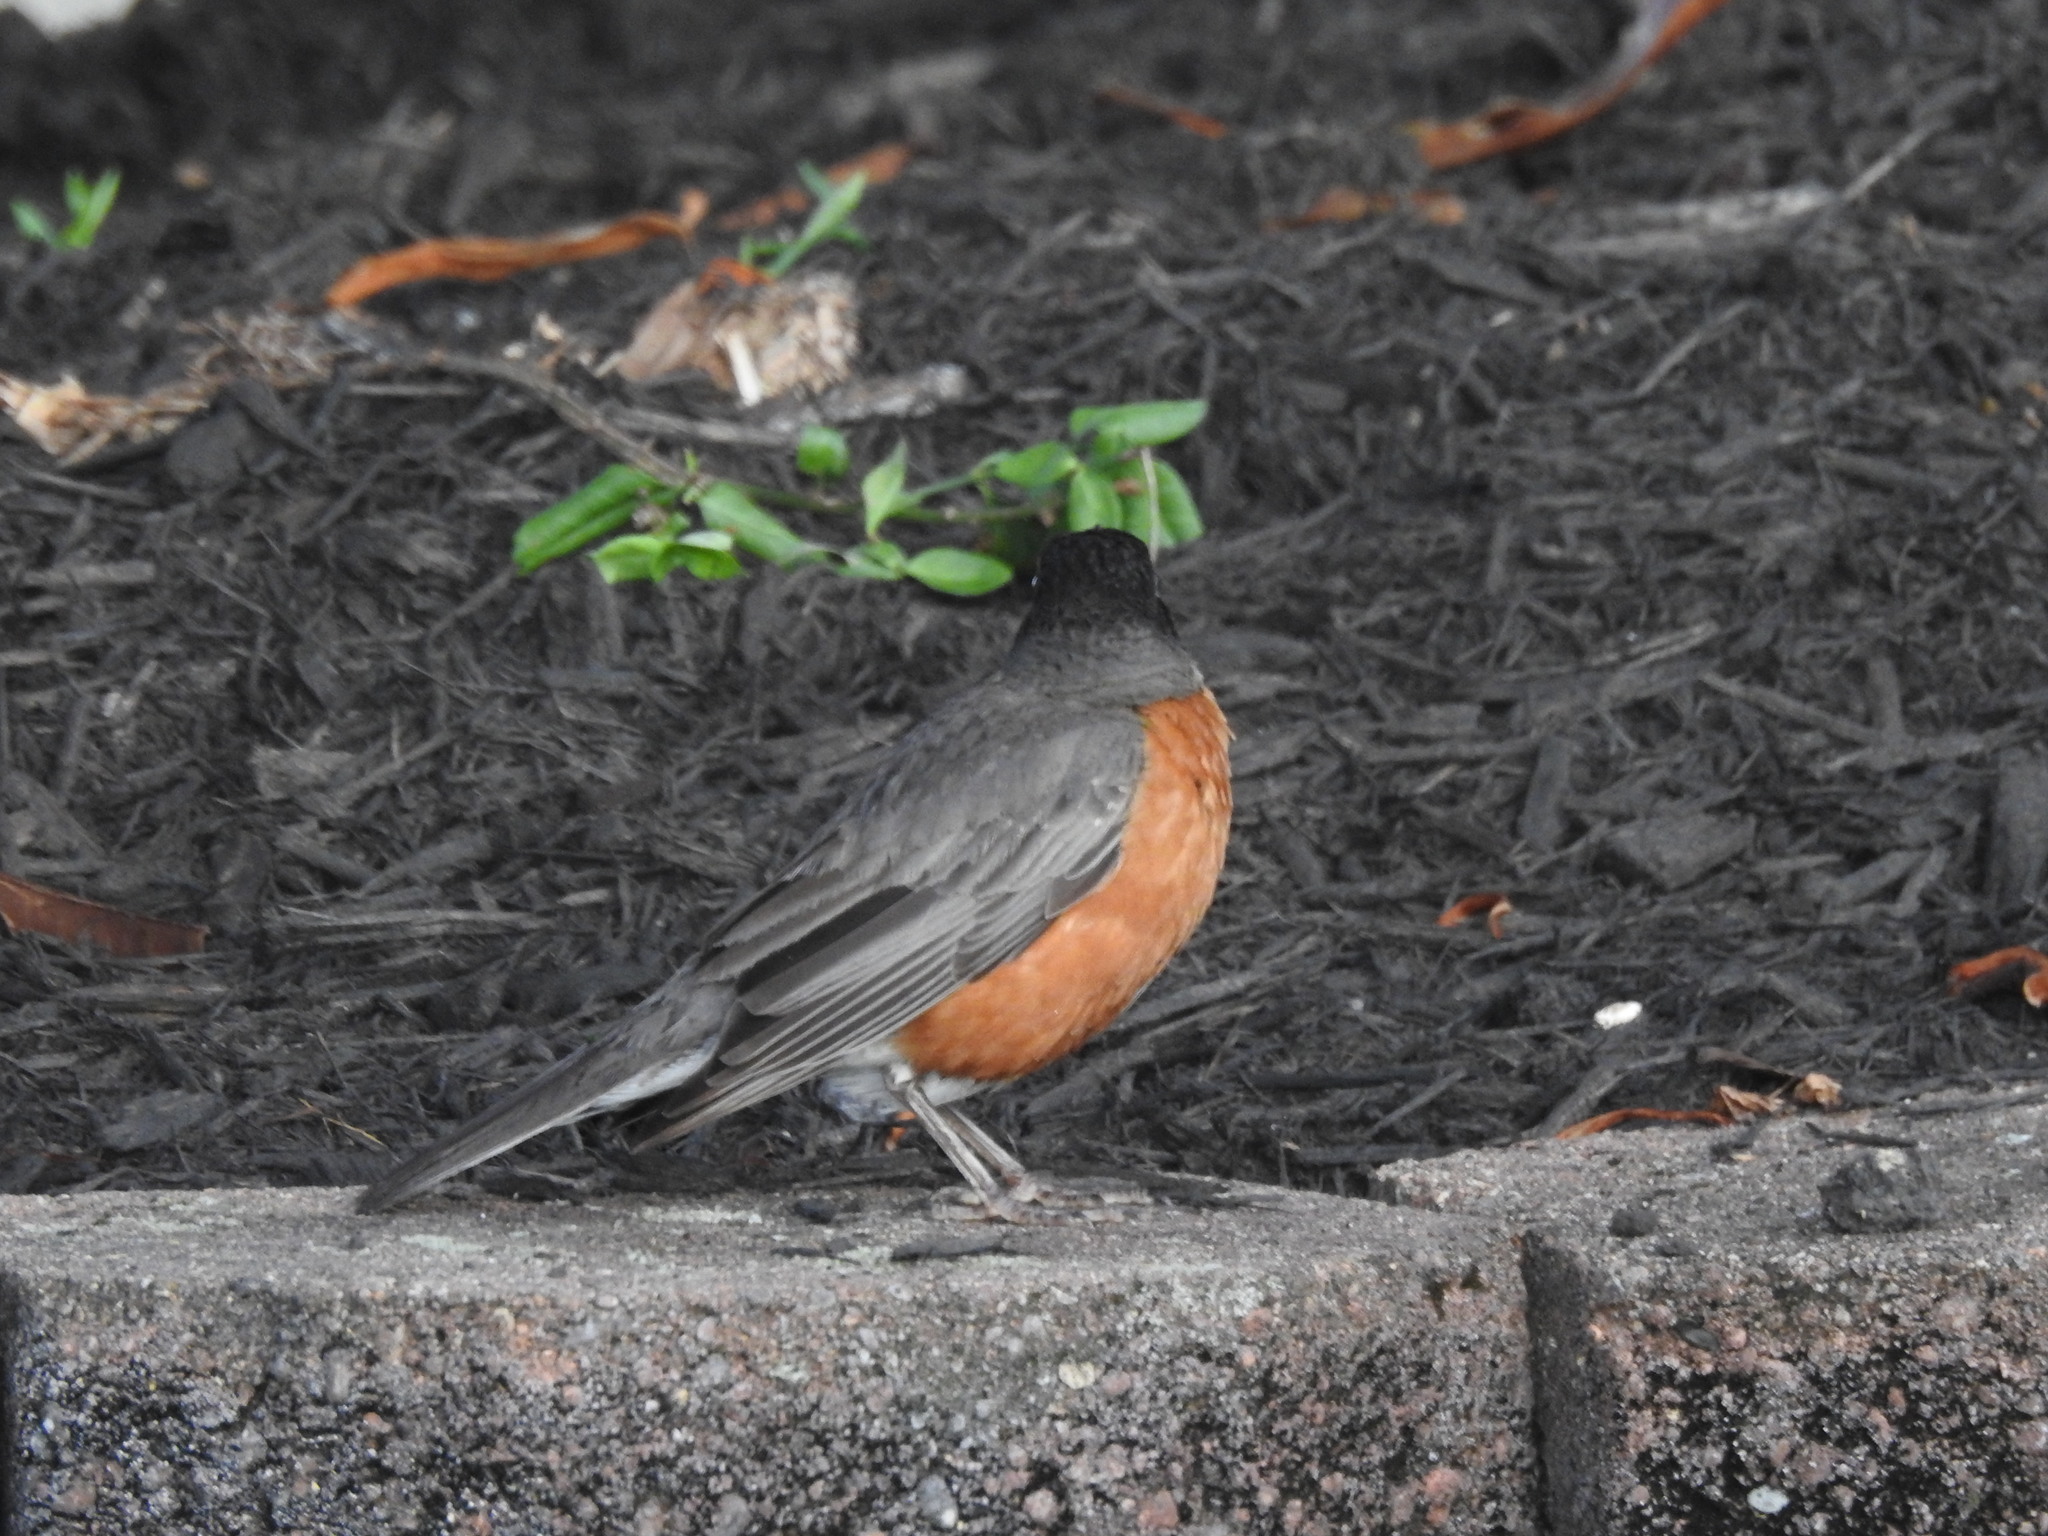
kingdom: Animalia
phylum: Chordata
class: Aves
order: Passeriformes
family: Turdidae
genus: Turdus
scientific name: Turdus migratorius
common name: American robin
